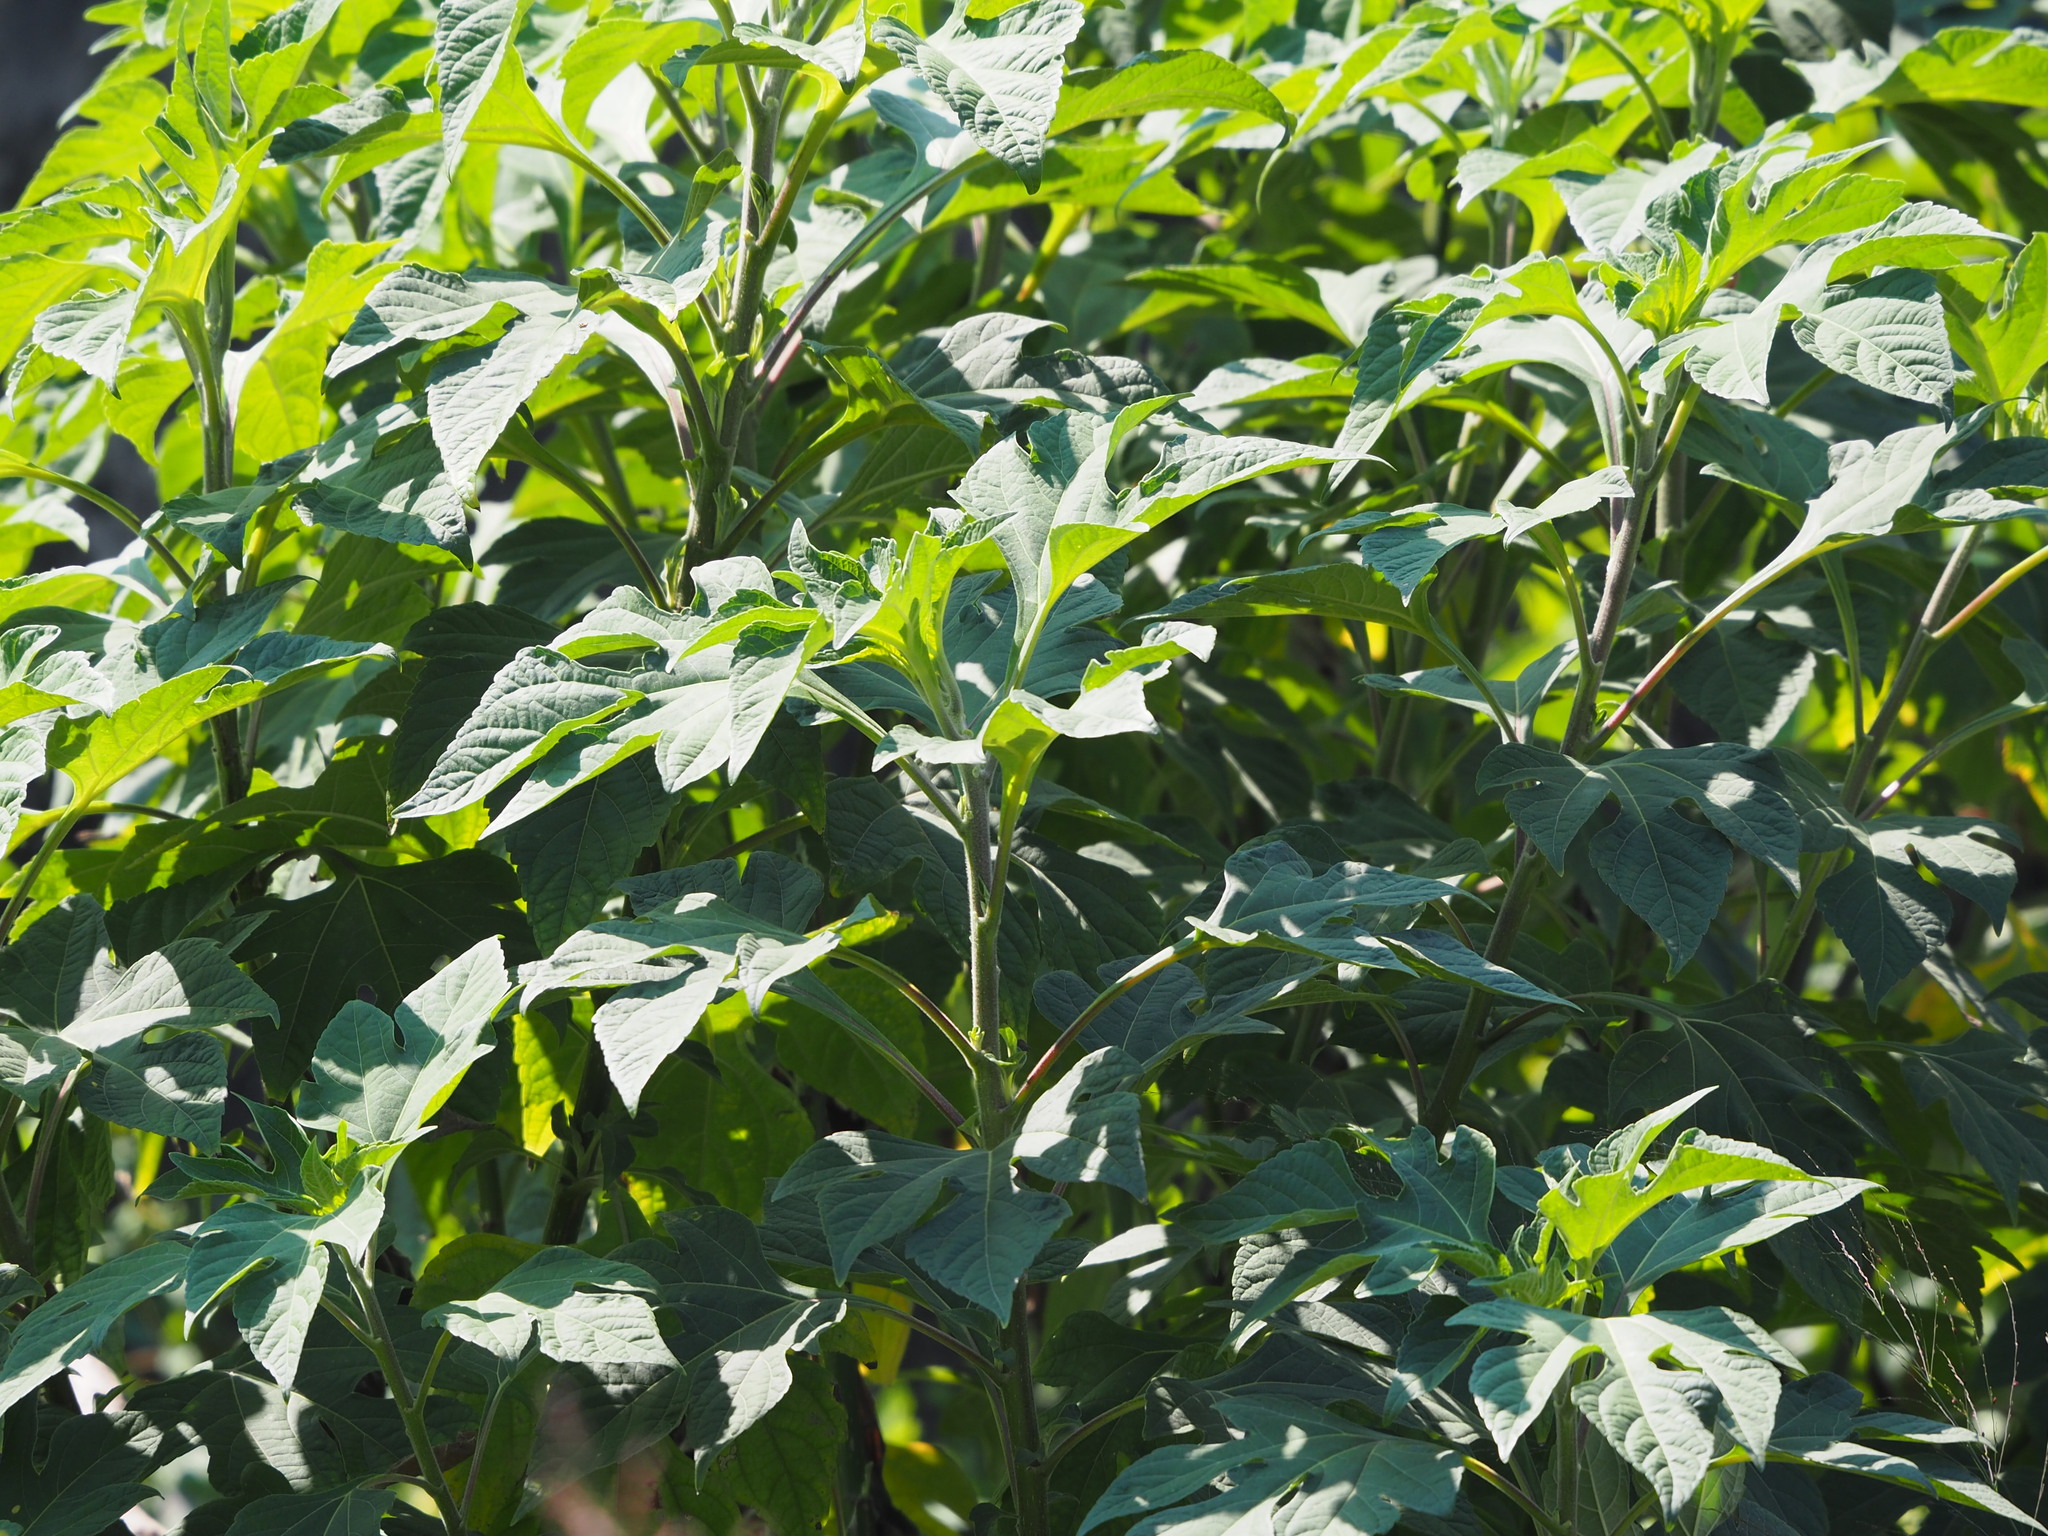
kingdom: Plantae
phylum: Tracheophyta
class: Magnoliopsida
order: Asterales
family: Asteraceae
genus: Tithonia
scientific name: Tithonia diversifolia
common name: Tree marigold
